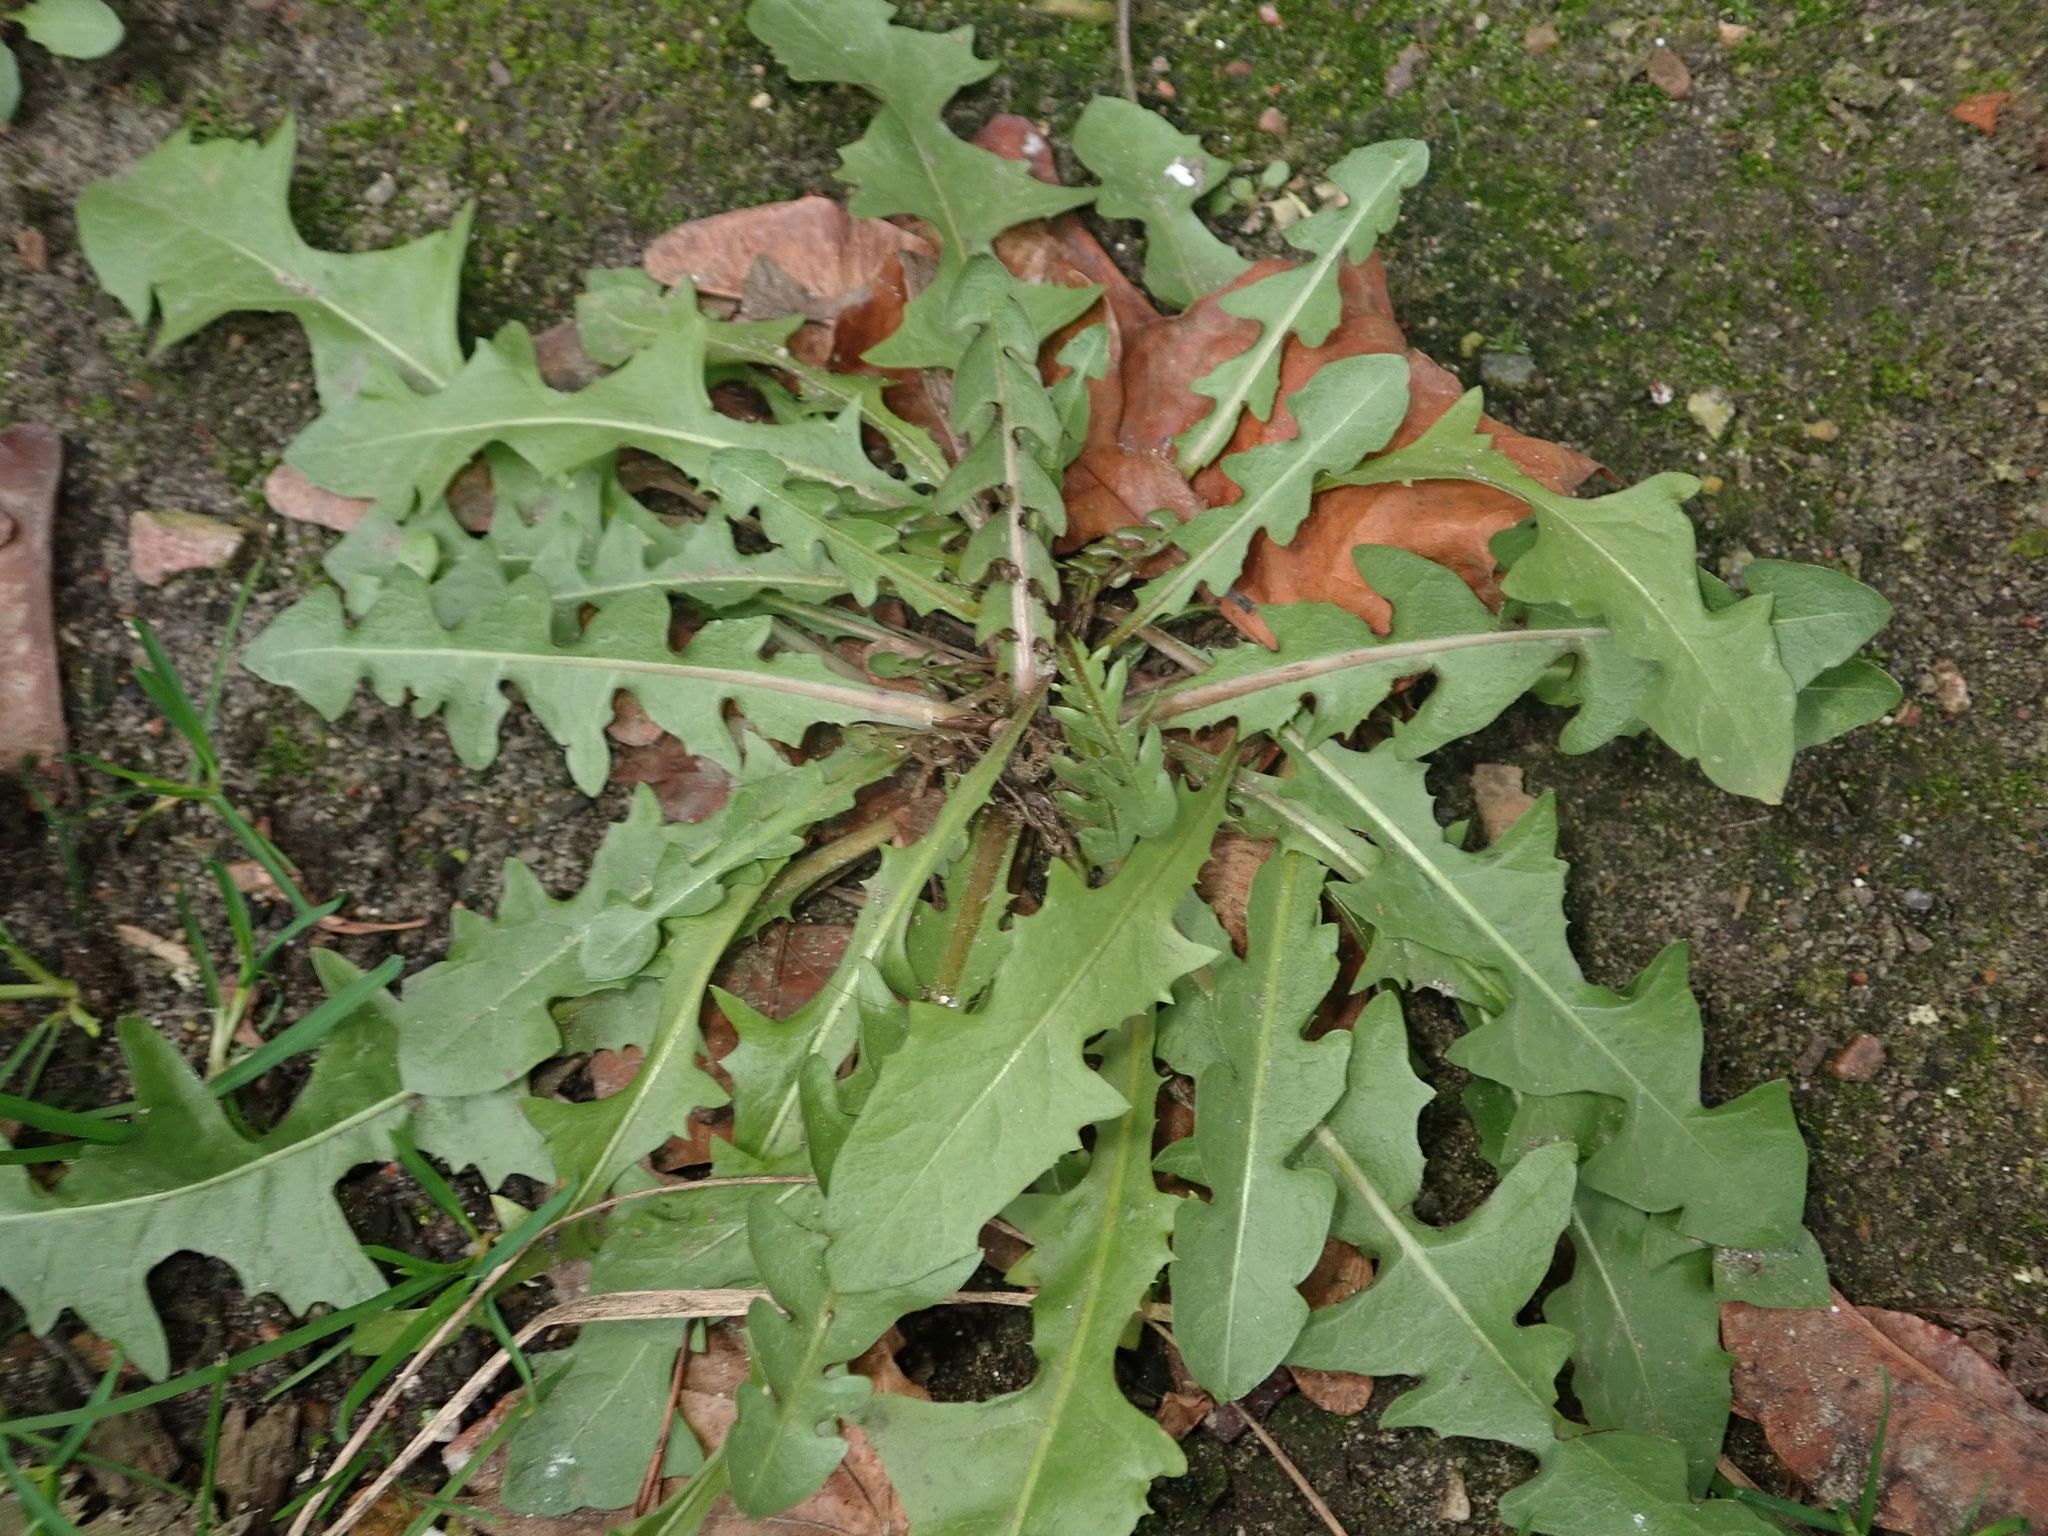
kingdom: Plantae
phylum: Tracheophyta
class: Magnoliopsida
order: Asterales
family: Asteraceae
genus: Taraxacum
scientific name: Taraxacum officinale
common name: Common dandelion
